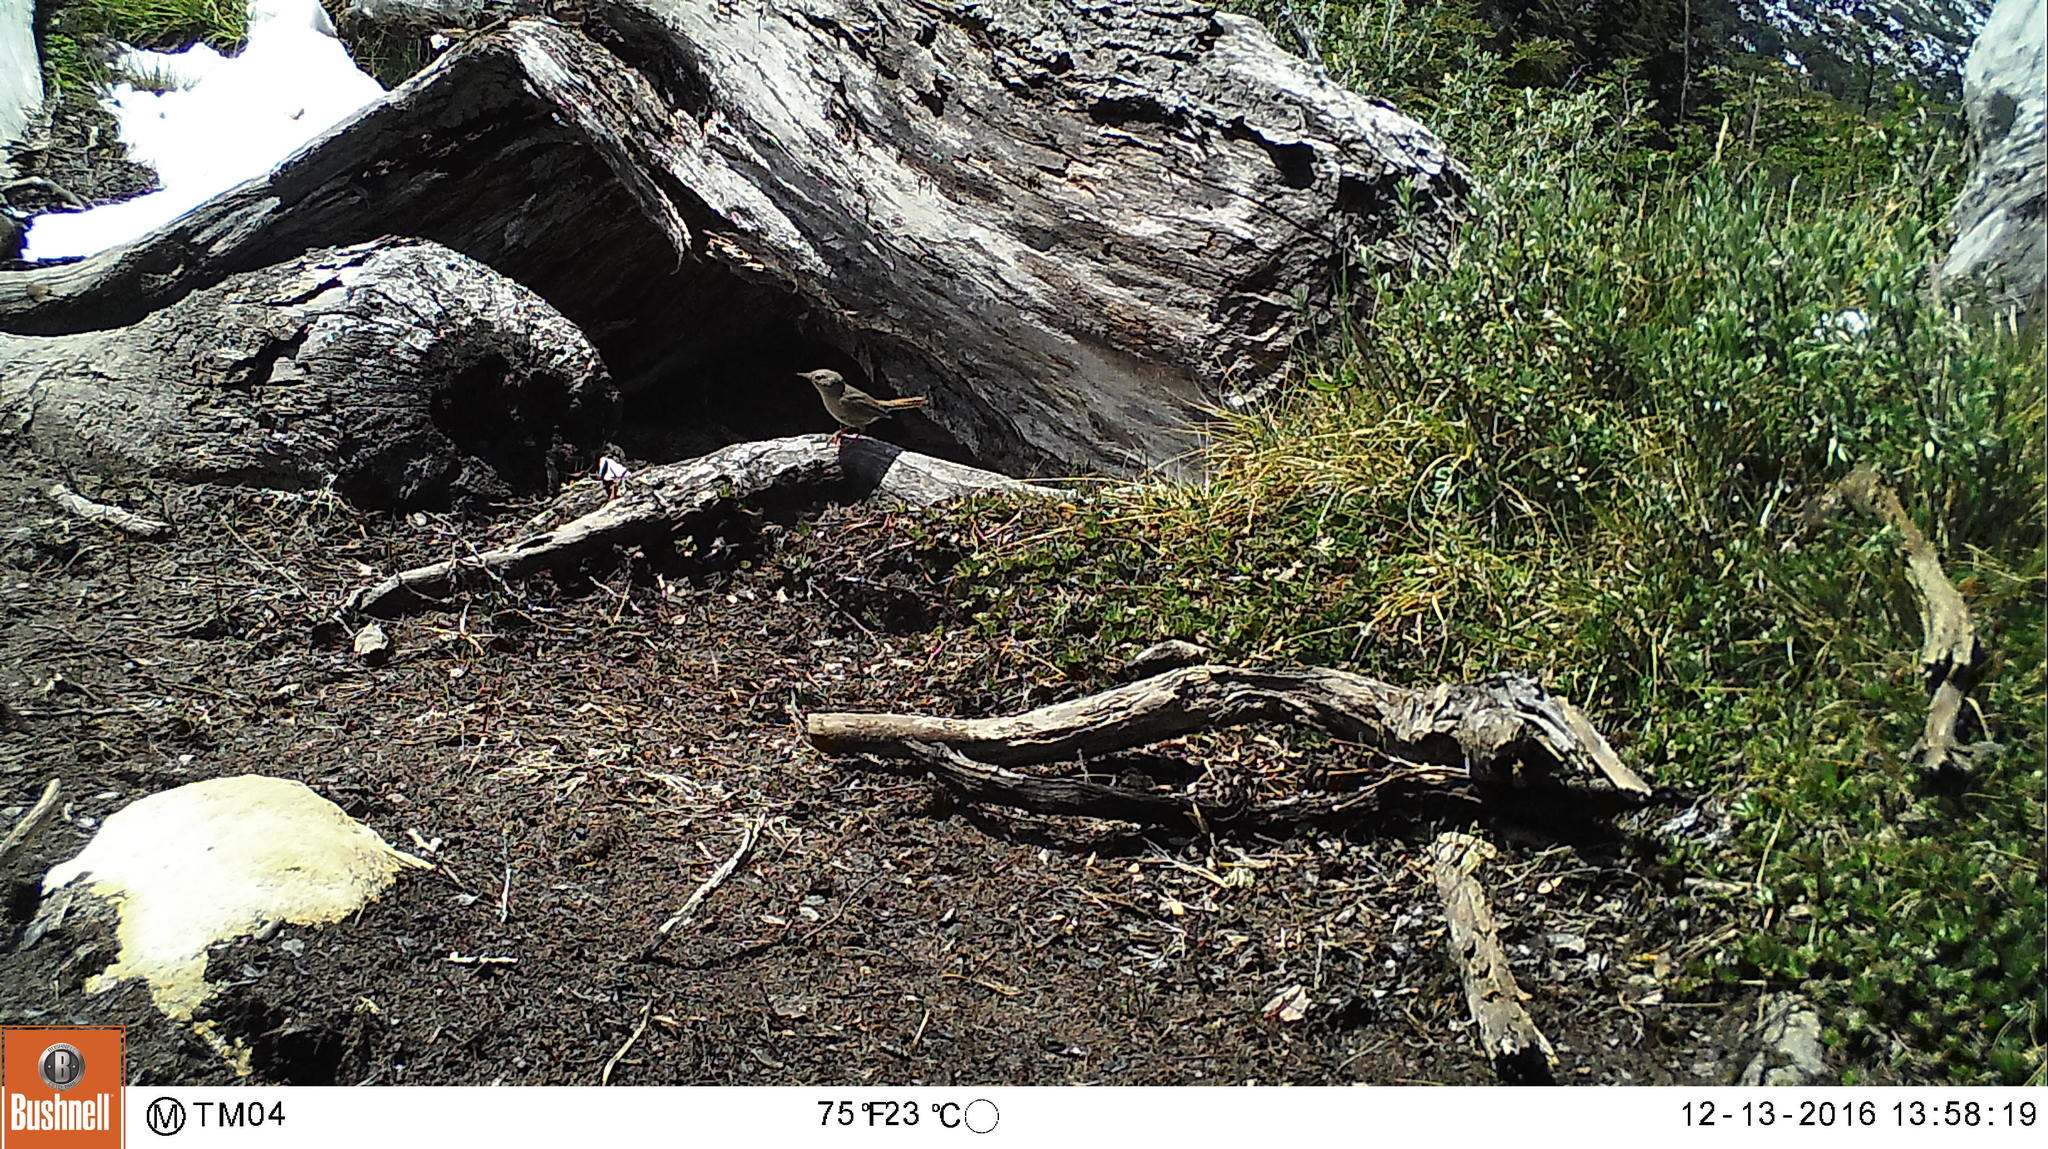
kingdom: Animalia
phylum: Chordata
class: Aves
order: Passeriformes
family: Troglodytidae
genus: Troglodytes
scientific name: Troglodytes aedon
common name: House wren
